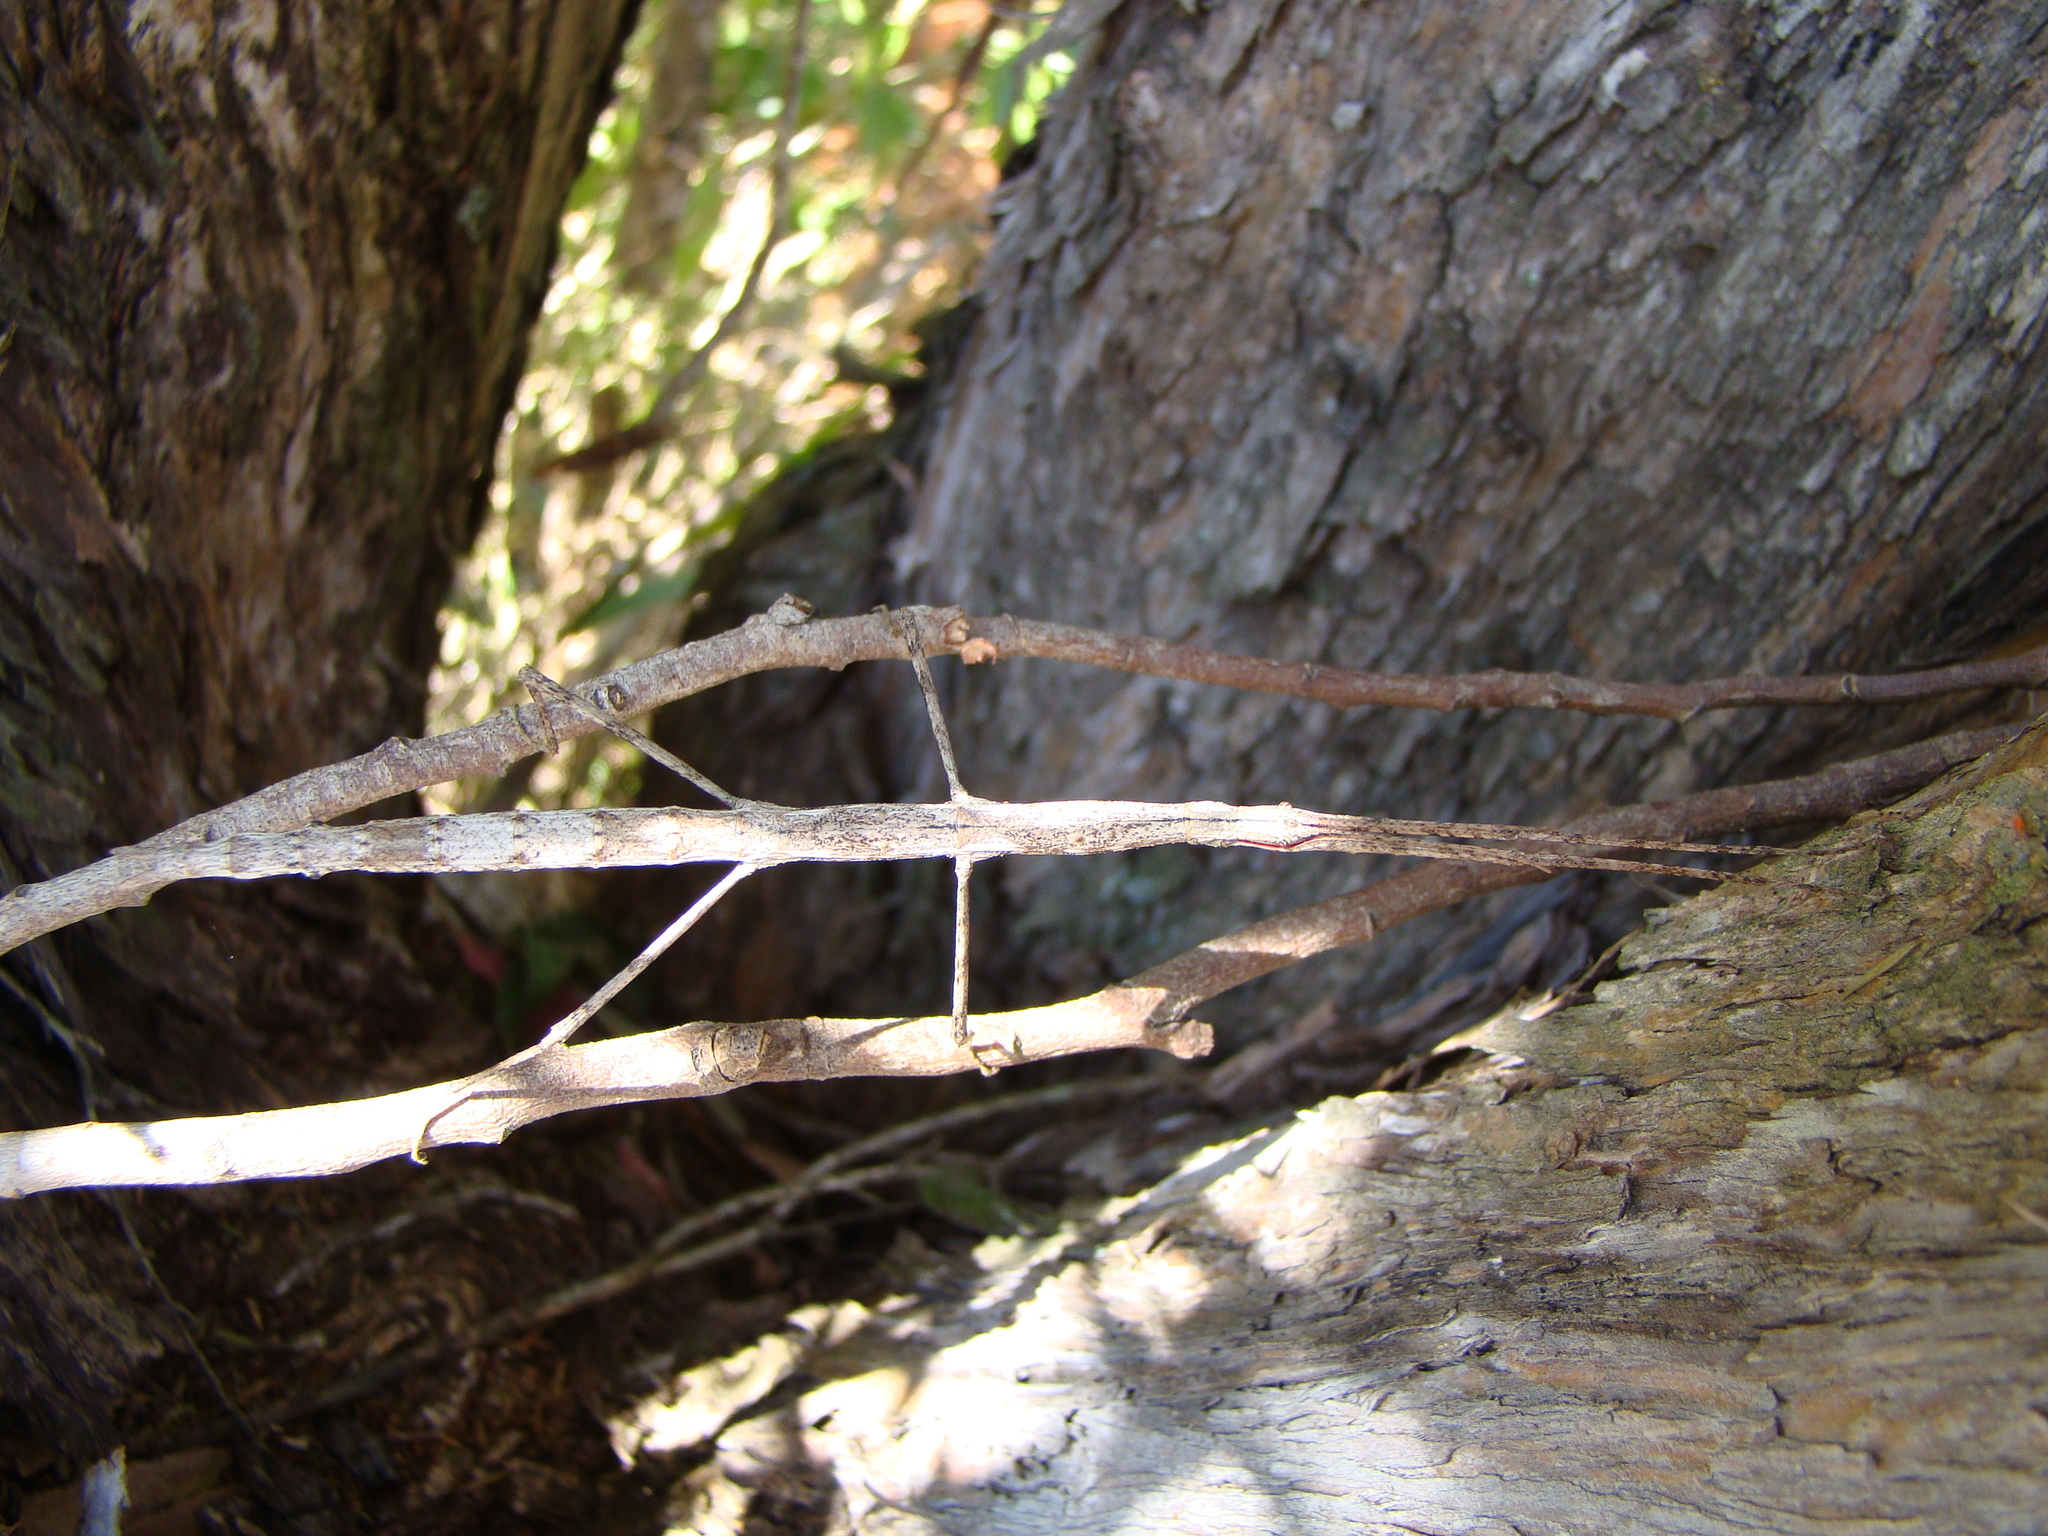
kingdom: Animalia
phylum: Arthropoda
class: Insecta
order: Phasmida
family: Phasmatidae
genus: Clitarchus
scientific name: Clitarchus hookeri
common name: Smooth stick insect
